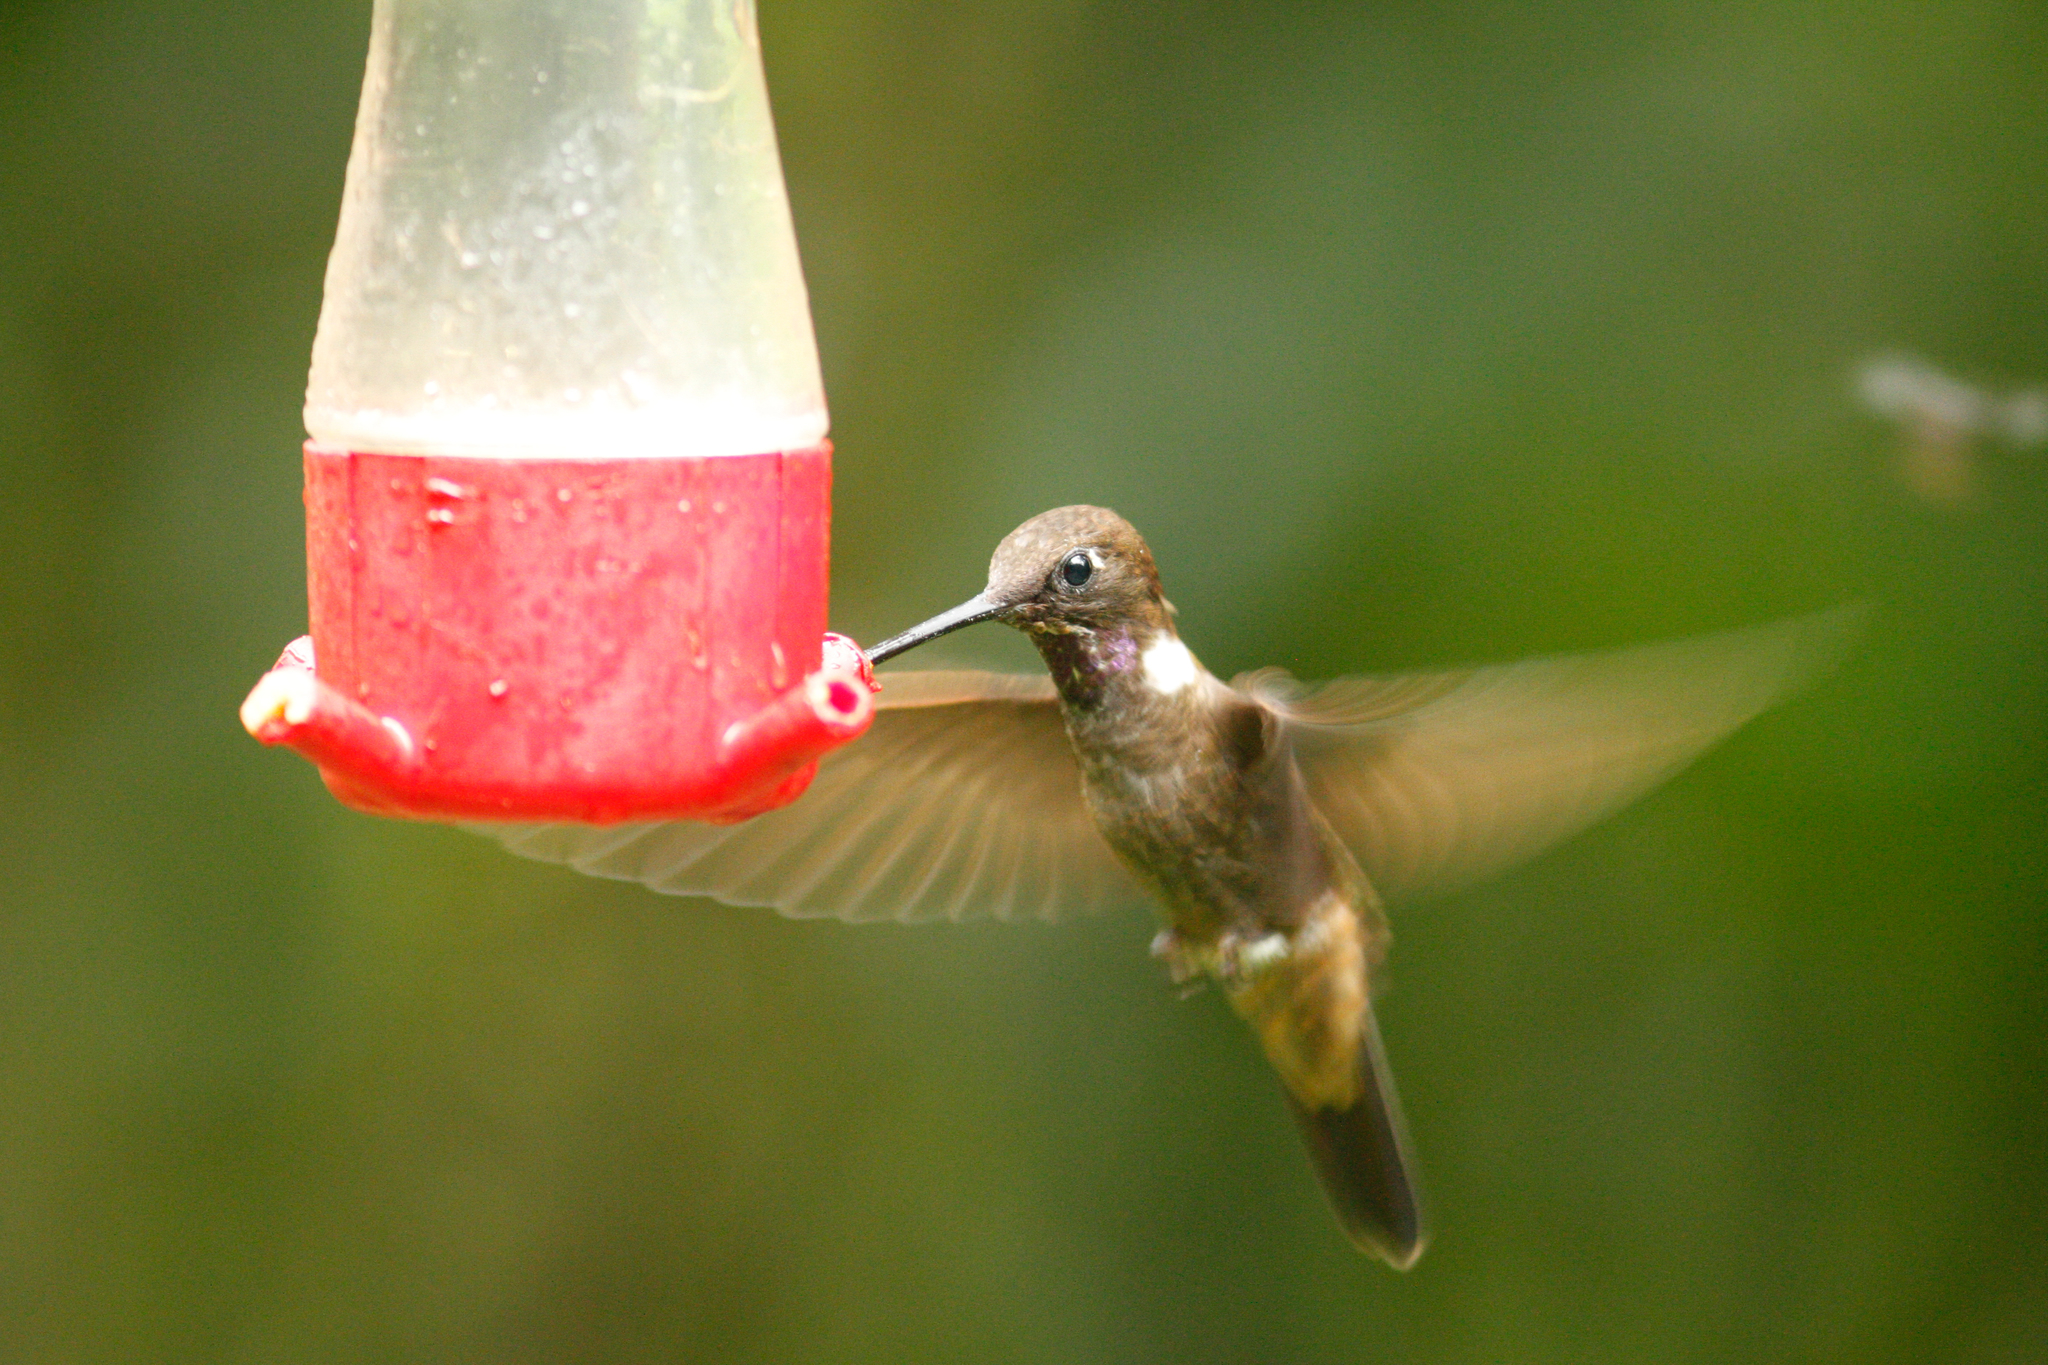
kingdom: Animalia
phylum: Chordata
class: Aves
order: Apodiformes
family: Trochilidae
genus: Coeligena
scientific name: Coeligena wilsoni
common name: Brown inca
